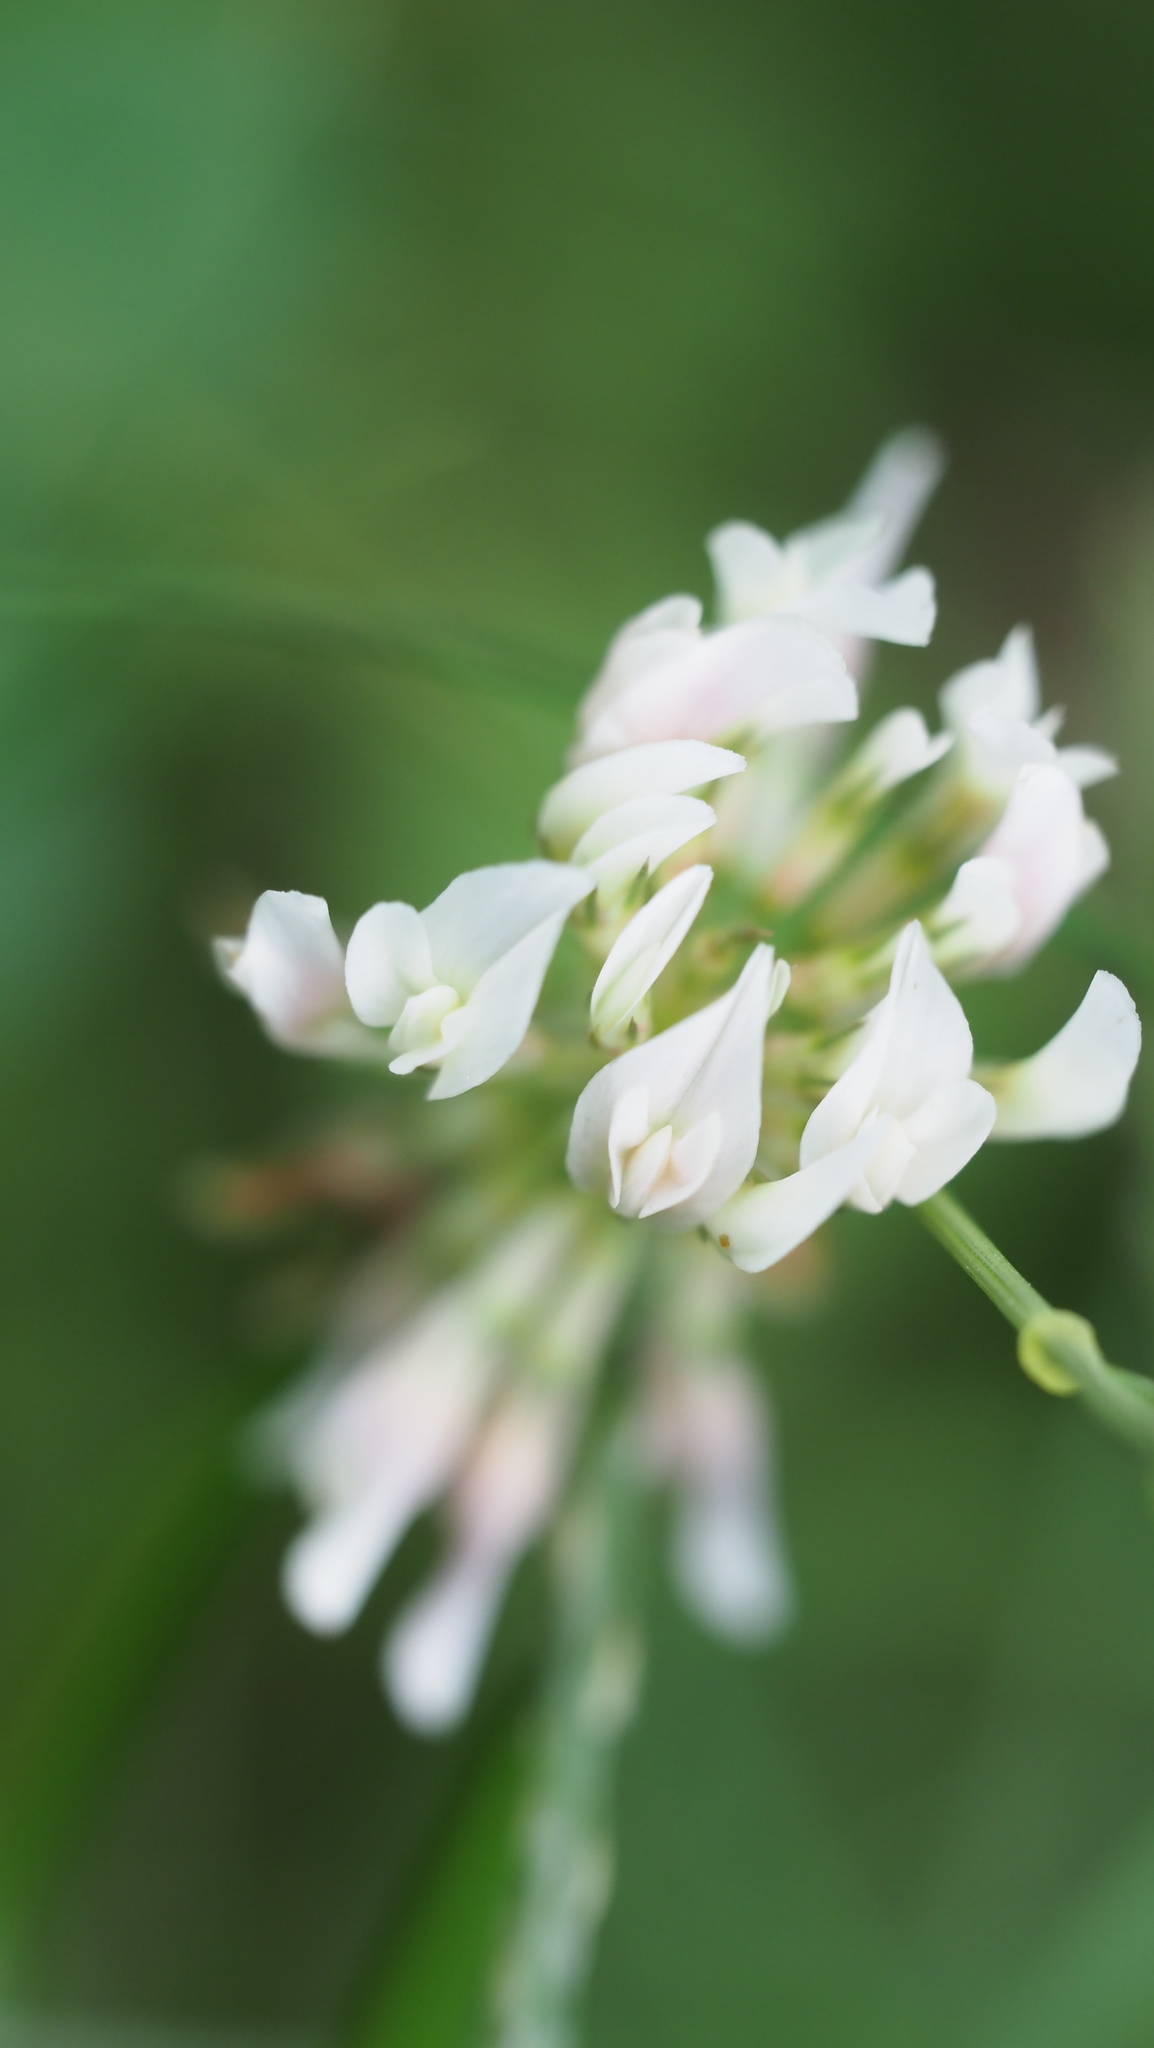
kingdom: Plantae
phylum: Tracheophyta
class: Magnoliopsida
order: Fabales
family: Fabaceae
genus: Trifolium
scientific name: Trifolium repens
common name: White clover
